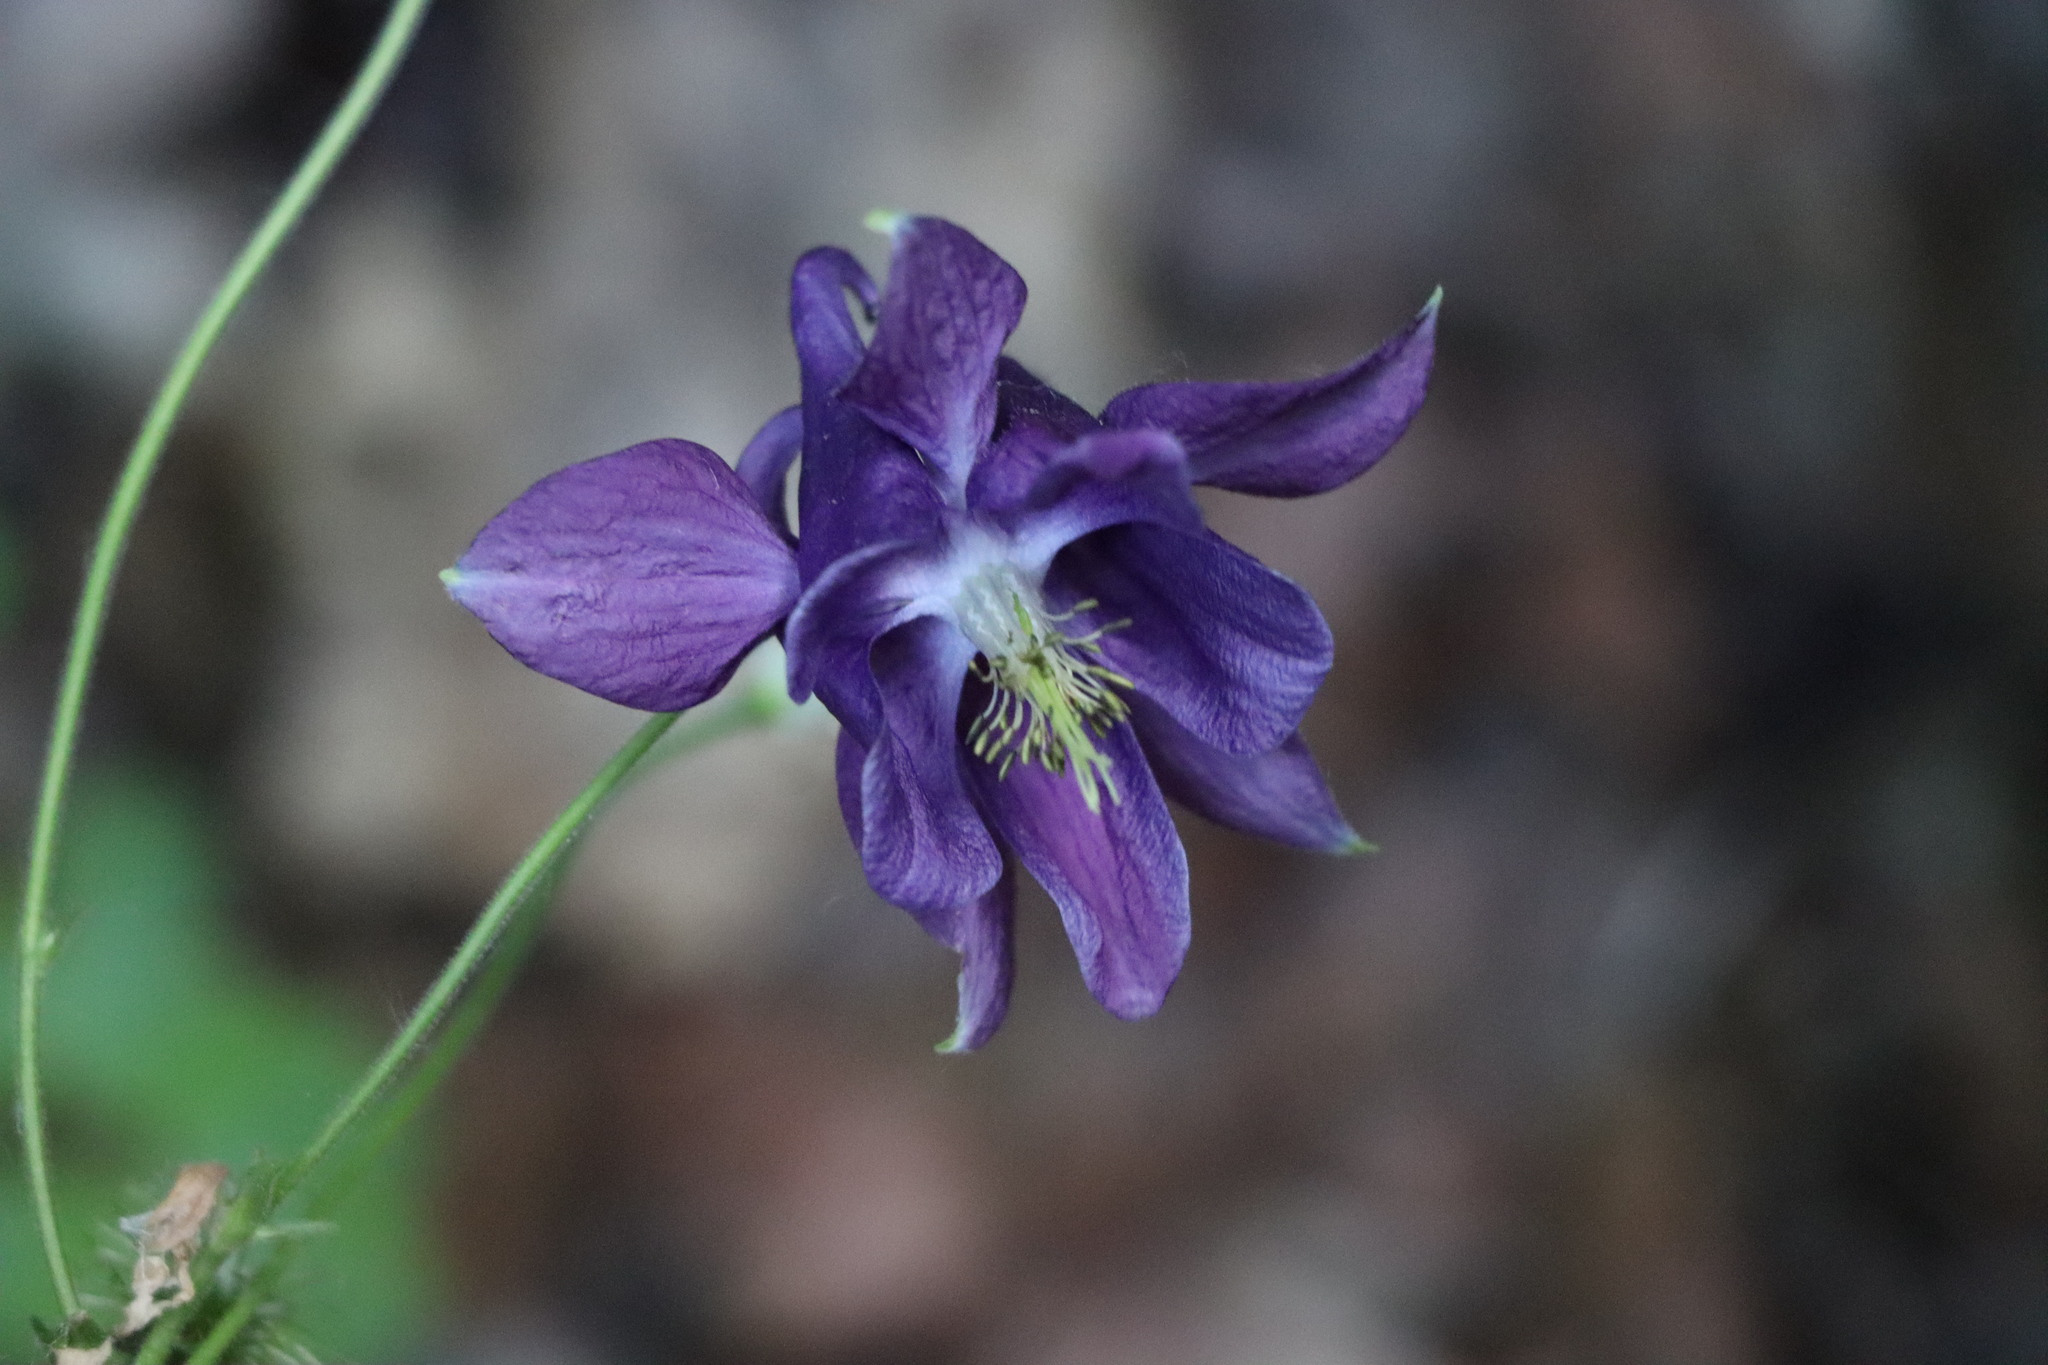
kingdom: Plantae
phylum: Tracheophyta
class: Magnoliopsida
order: Ranunculales
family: Ranunculaceae
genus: Aquilegia
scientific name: Aquilegia vulgaris
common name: Columbine
